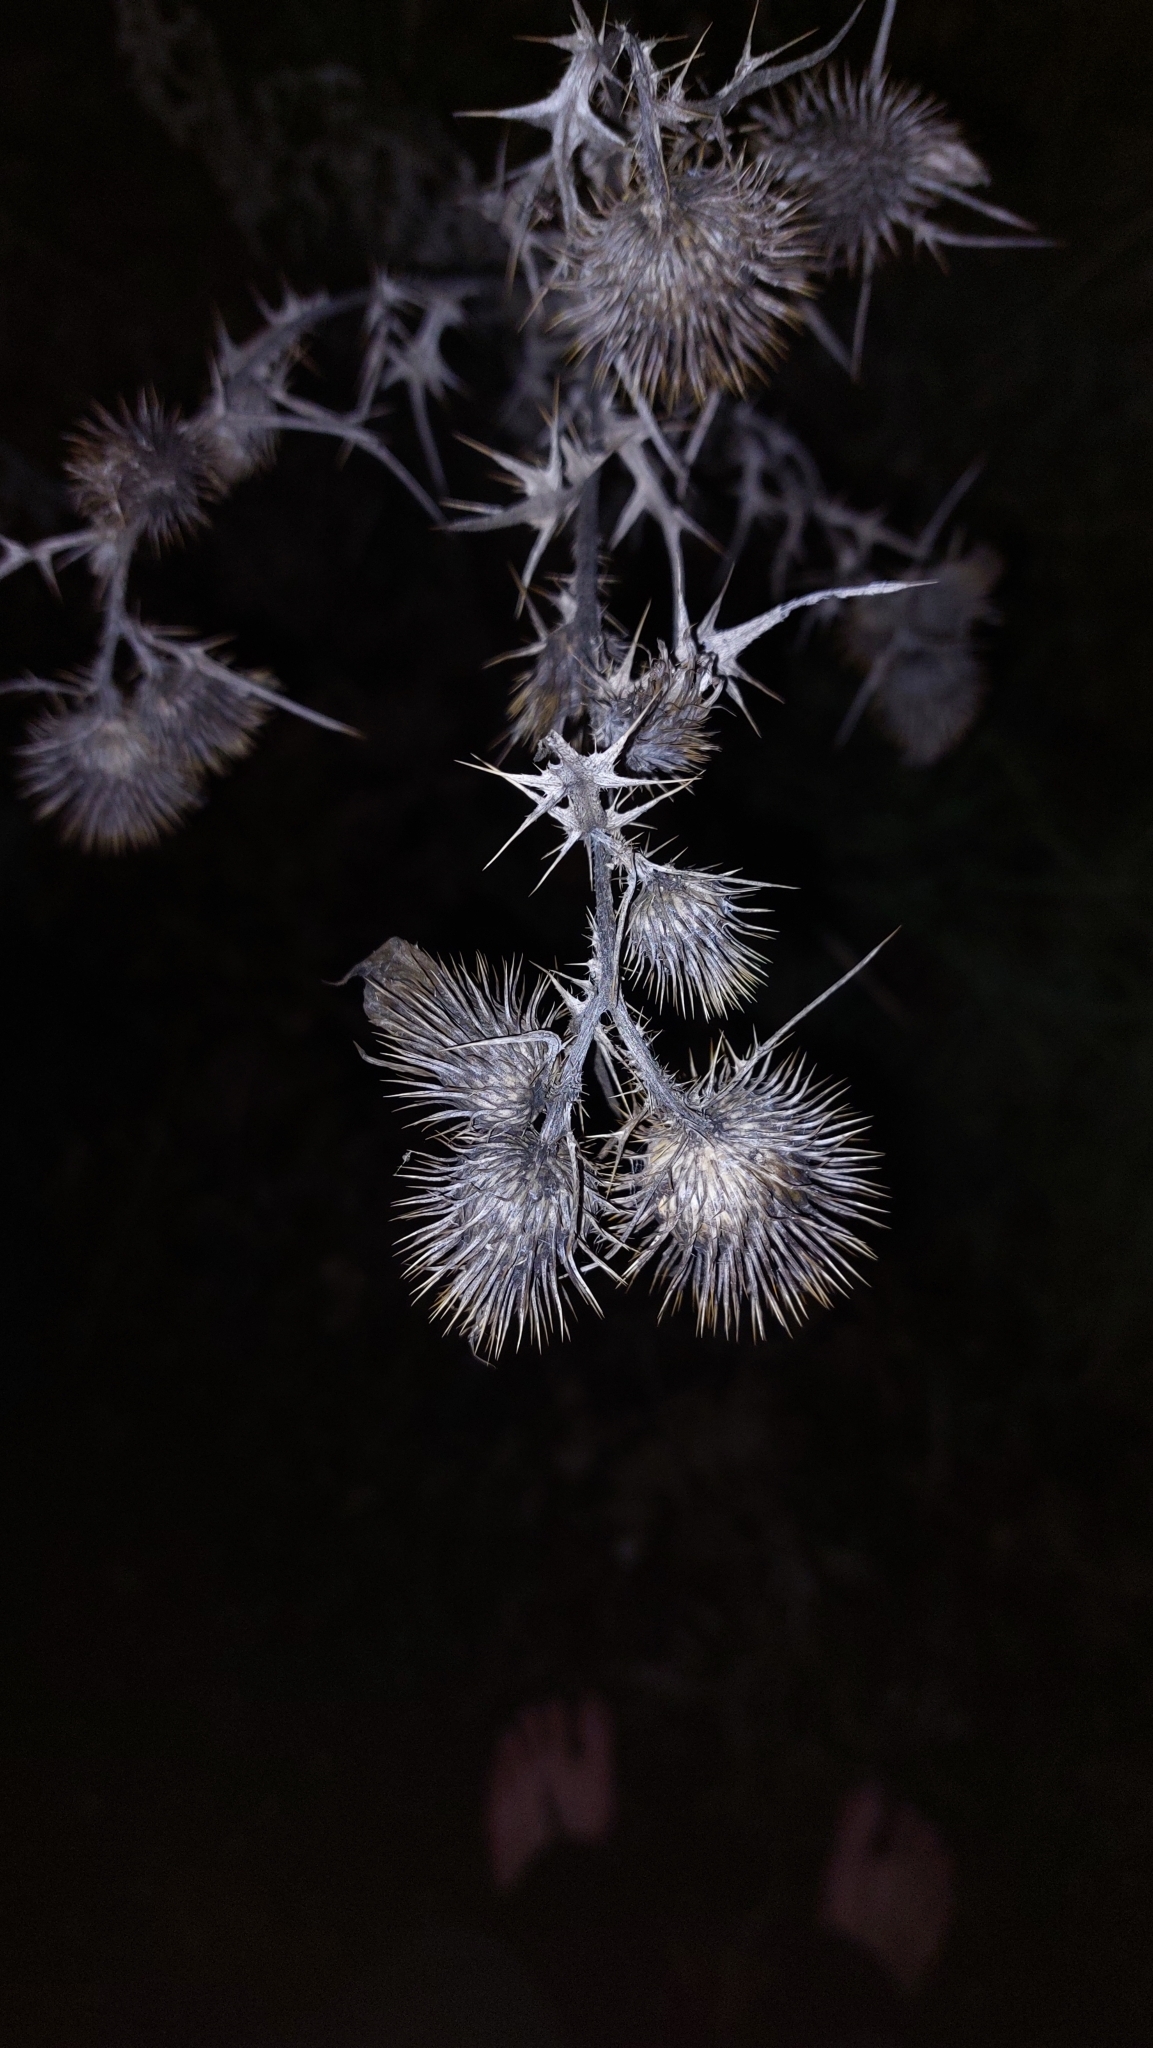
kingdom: Plantae
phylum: Tracheophyta
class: Magnoliopsida
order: Asterales
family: Asteraceae
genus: Cirsium
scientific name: Cirsium vulgare
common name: Bull thistle
